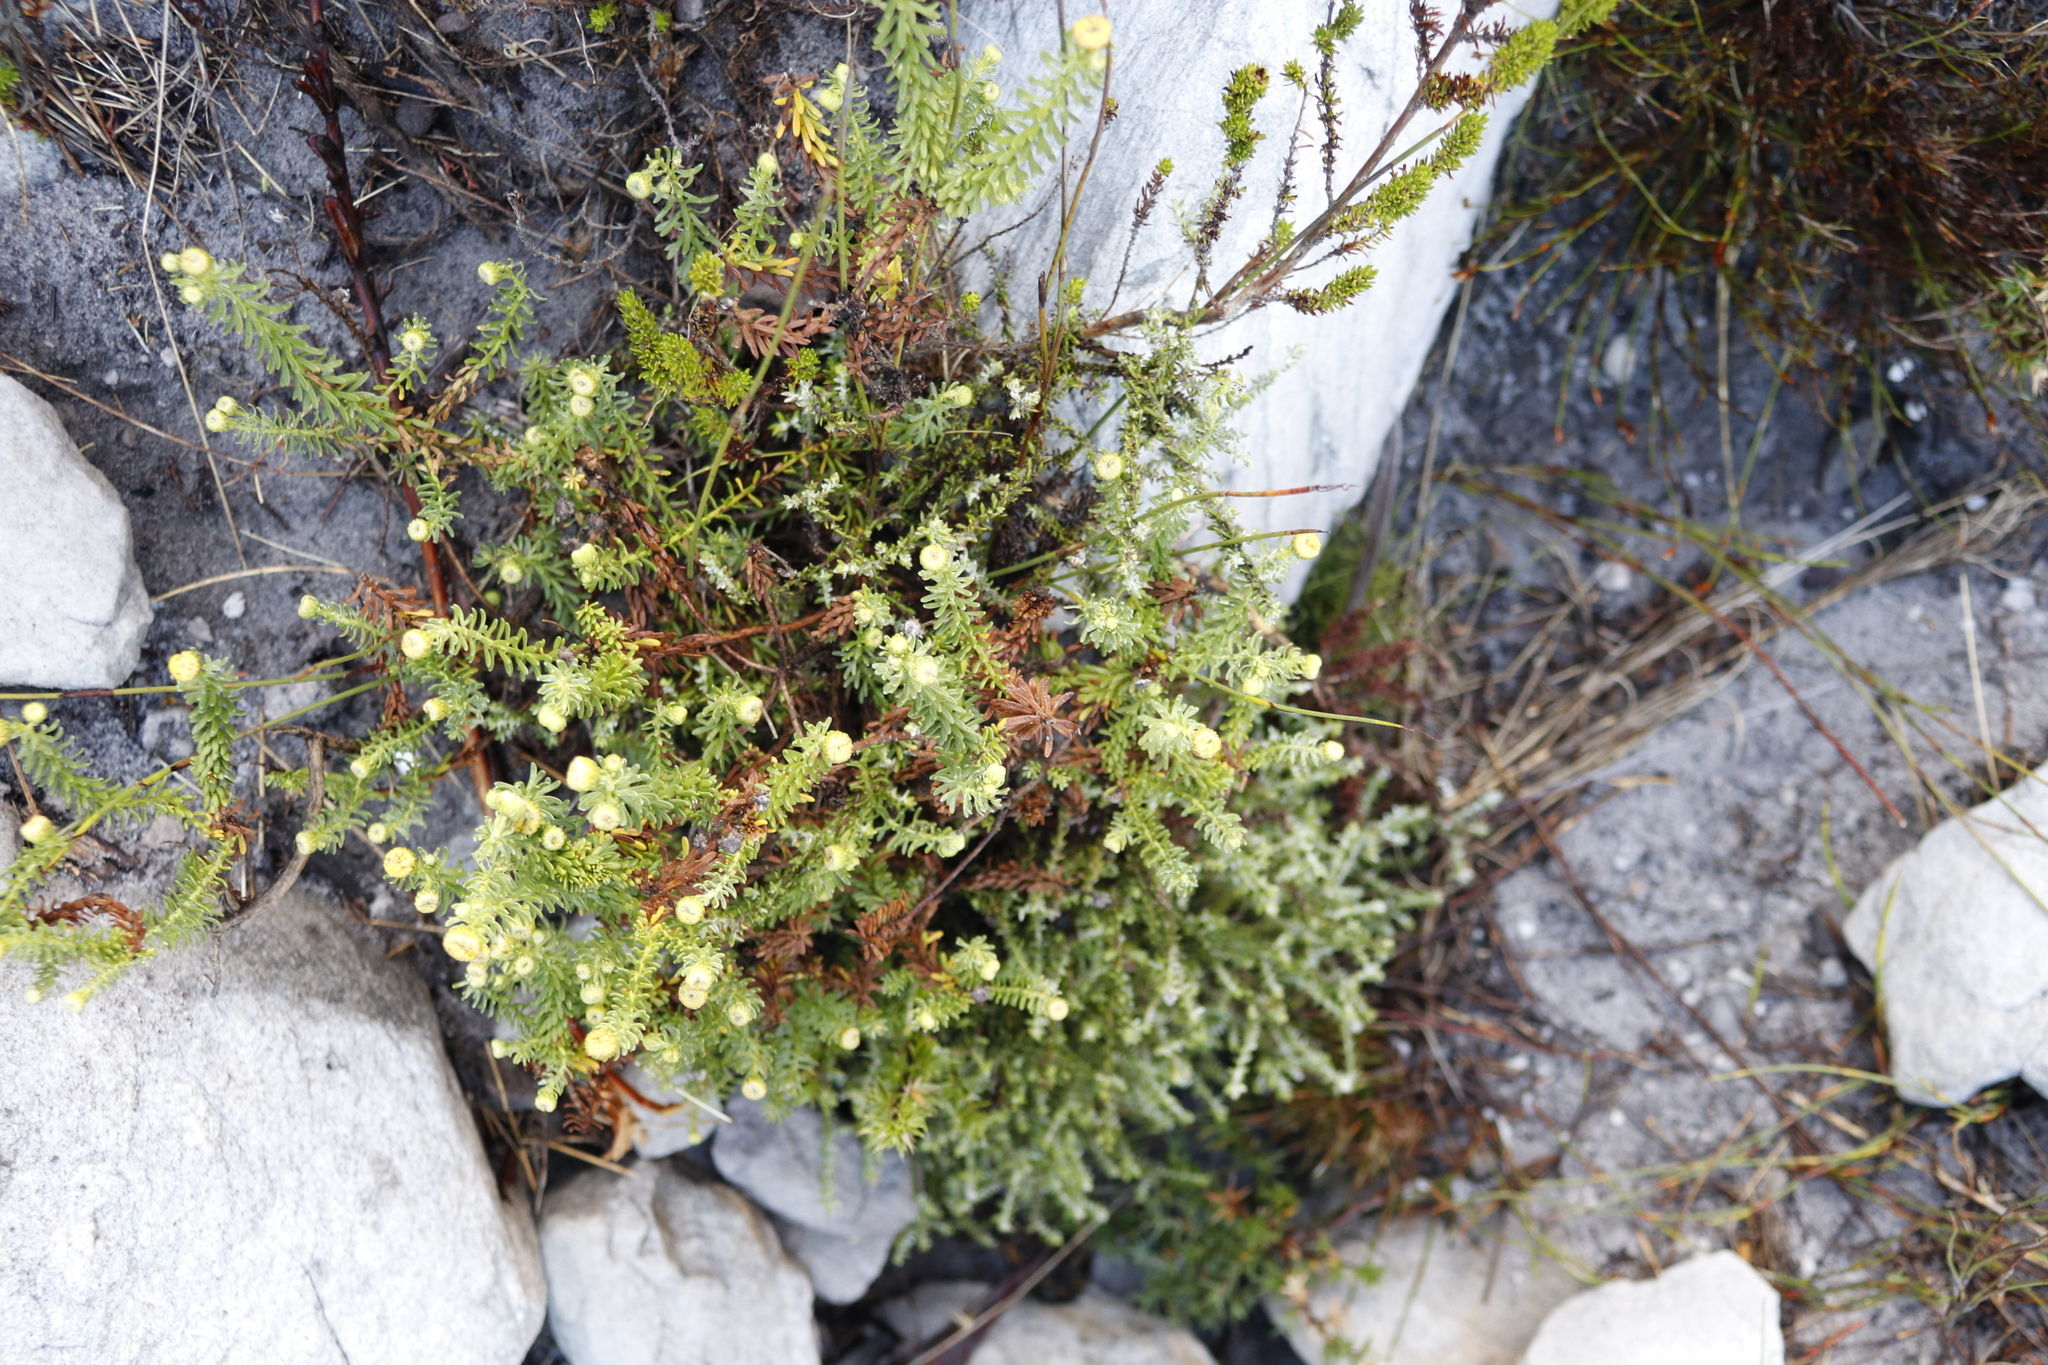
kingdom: Plantae
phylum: Tracheophyta
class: Magnoliopsida
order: Asterales
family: Asteraceae
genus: Chrysocoma
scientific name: Chrysocoma cernua
